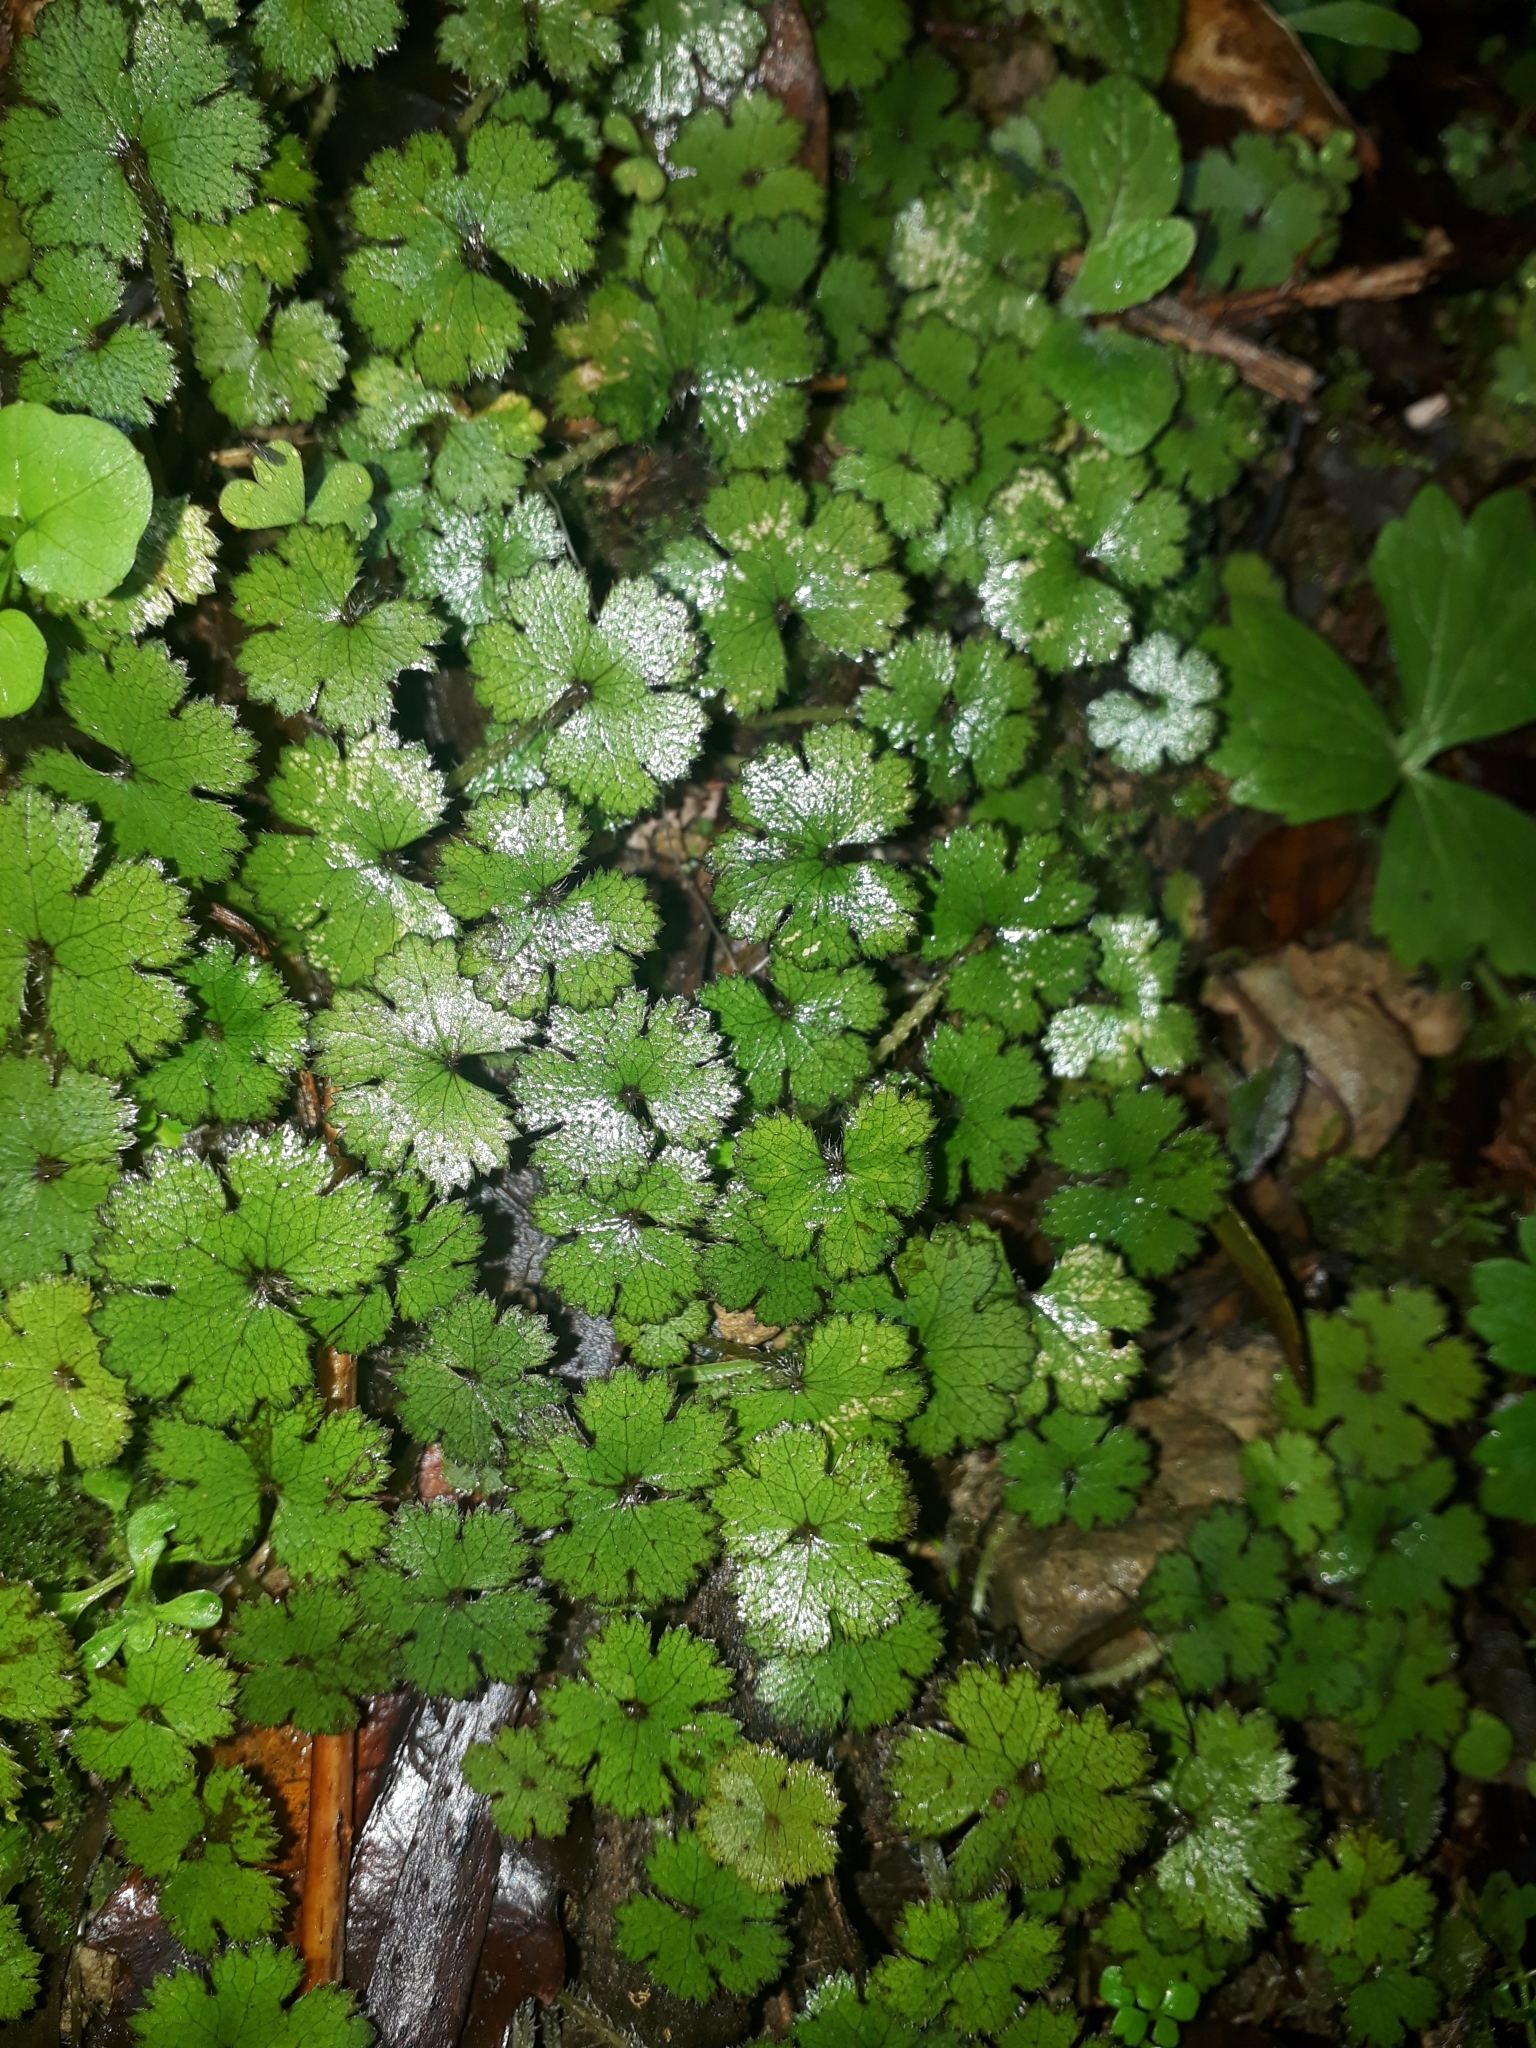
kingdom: Plantae
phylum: Tracheophyta
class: Magnoliopsida
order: Apiales
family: Araliaceae
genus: Hydrocotyle
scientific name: Hydrocotyle elongata
